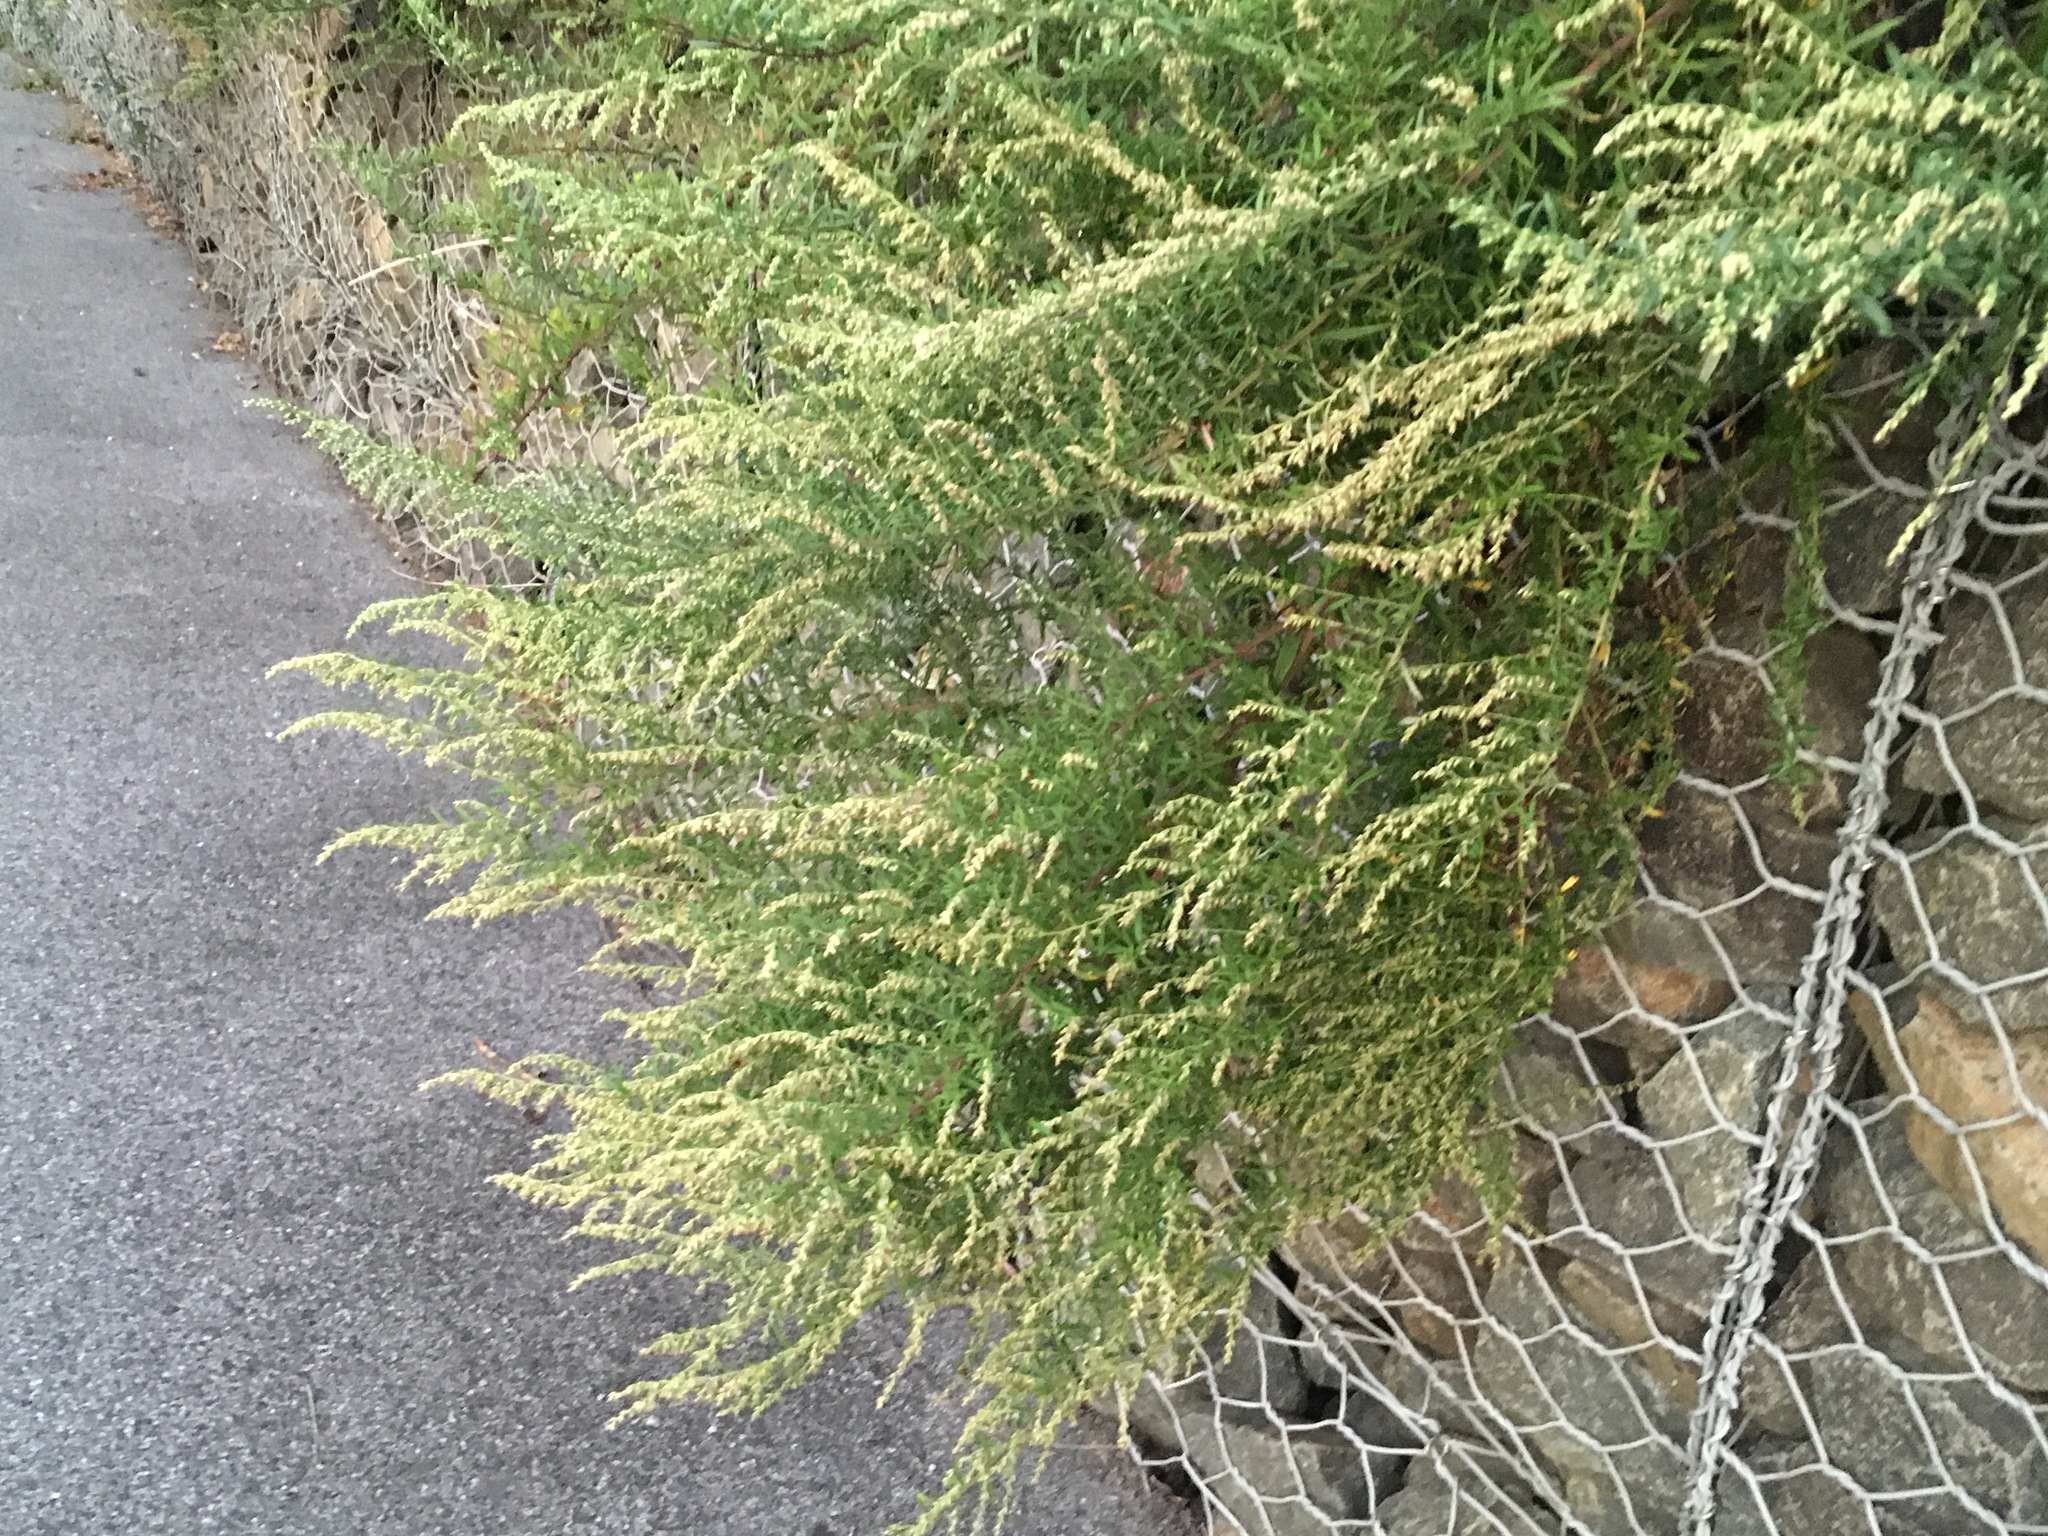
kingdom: Plantae
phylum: Tracheophyta
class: Magnoliopsida
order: Asterales
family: Asteraceae
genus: Artemisia
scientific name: Artemisia vulgaris
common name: Mugwort
